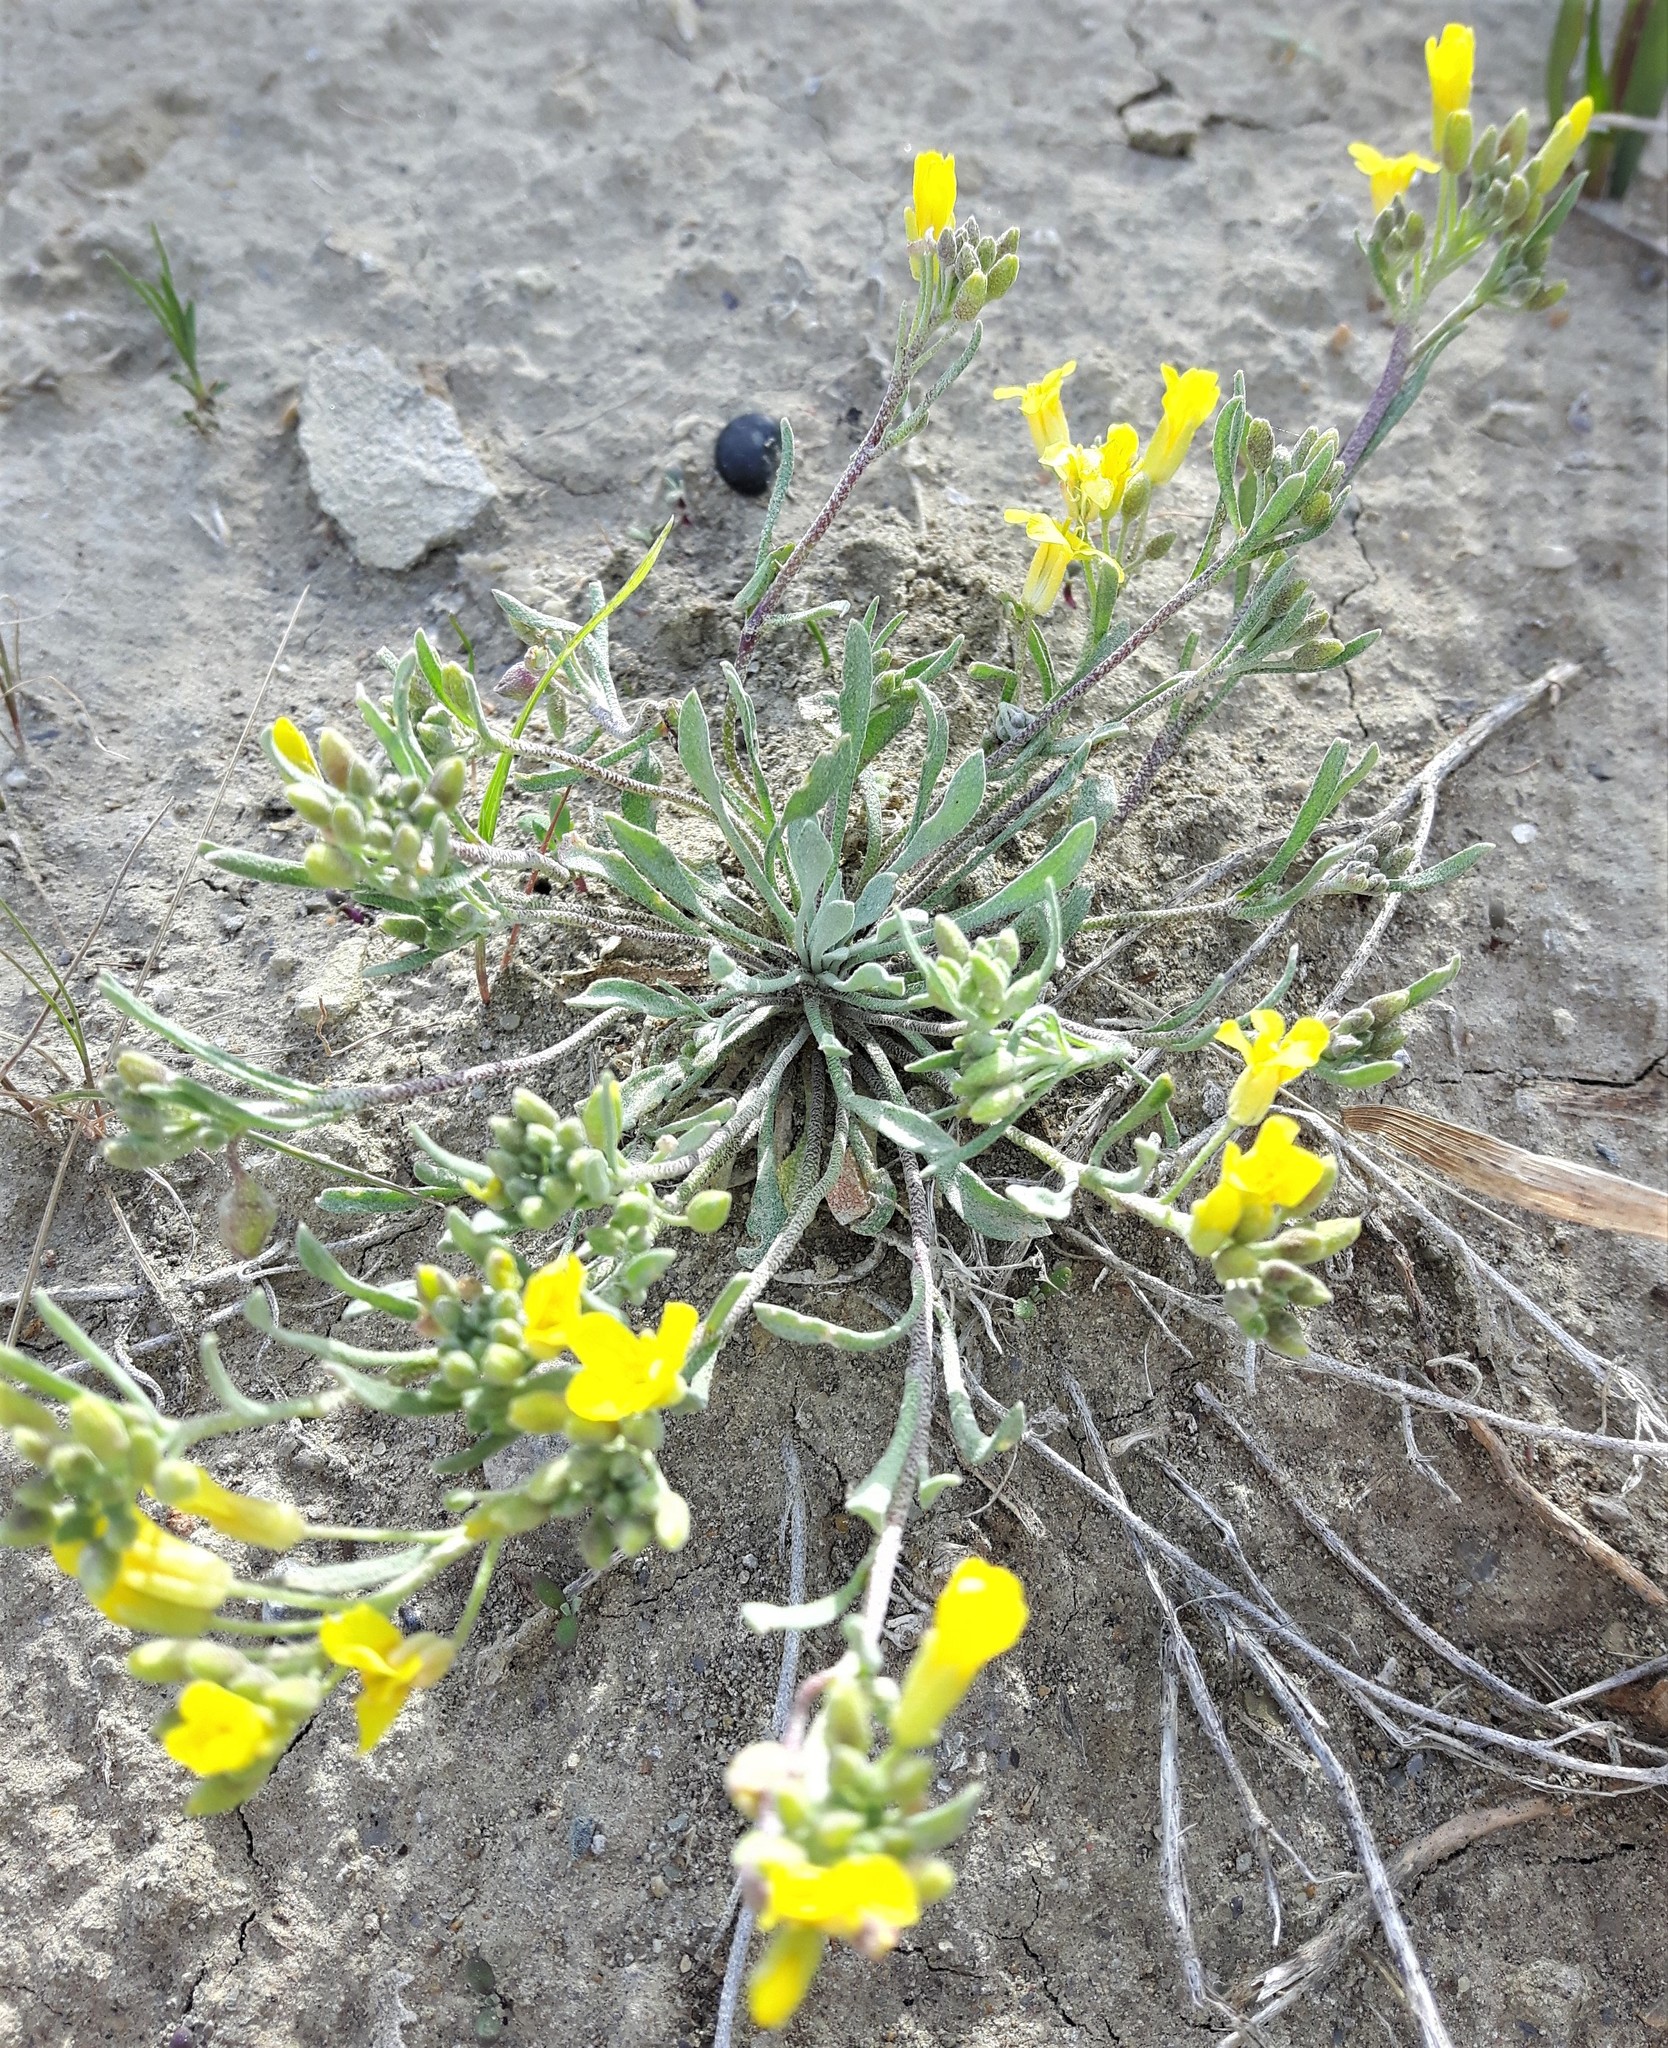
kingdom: Plantae
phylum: Tracheophyta
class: Magnoliopsida
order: Brassicales
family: Brassicaceae
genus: Physaria
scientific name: Physaria arenosa
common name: Great plains bladderpod
